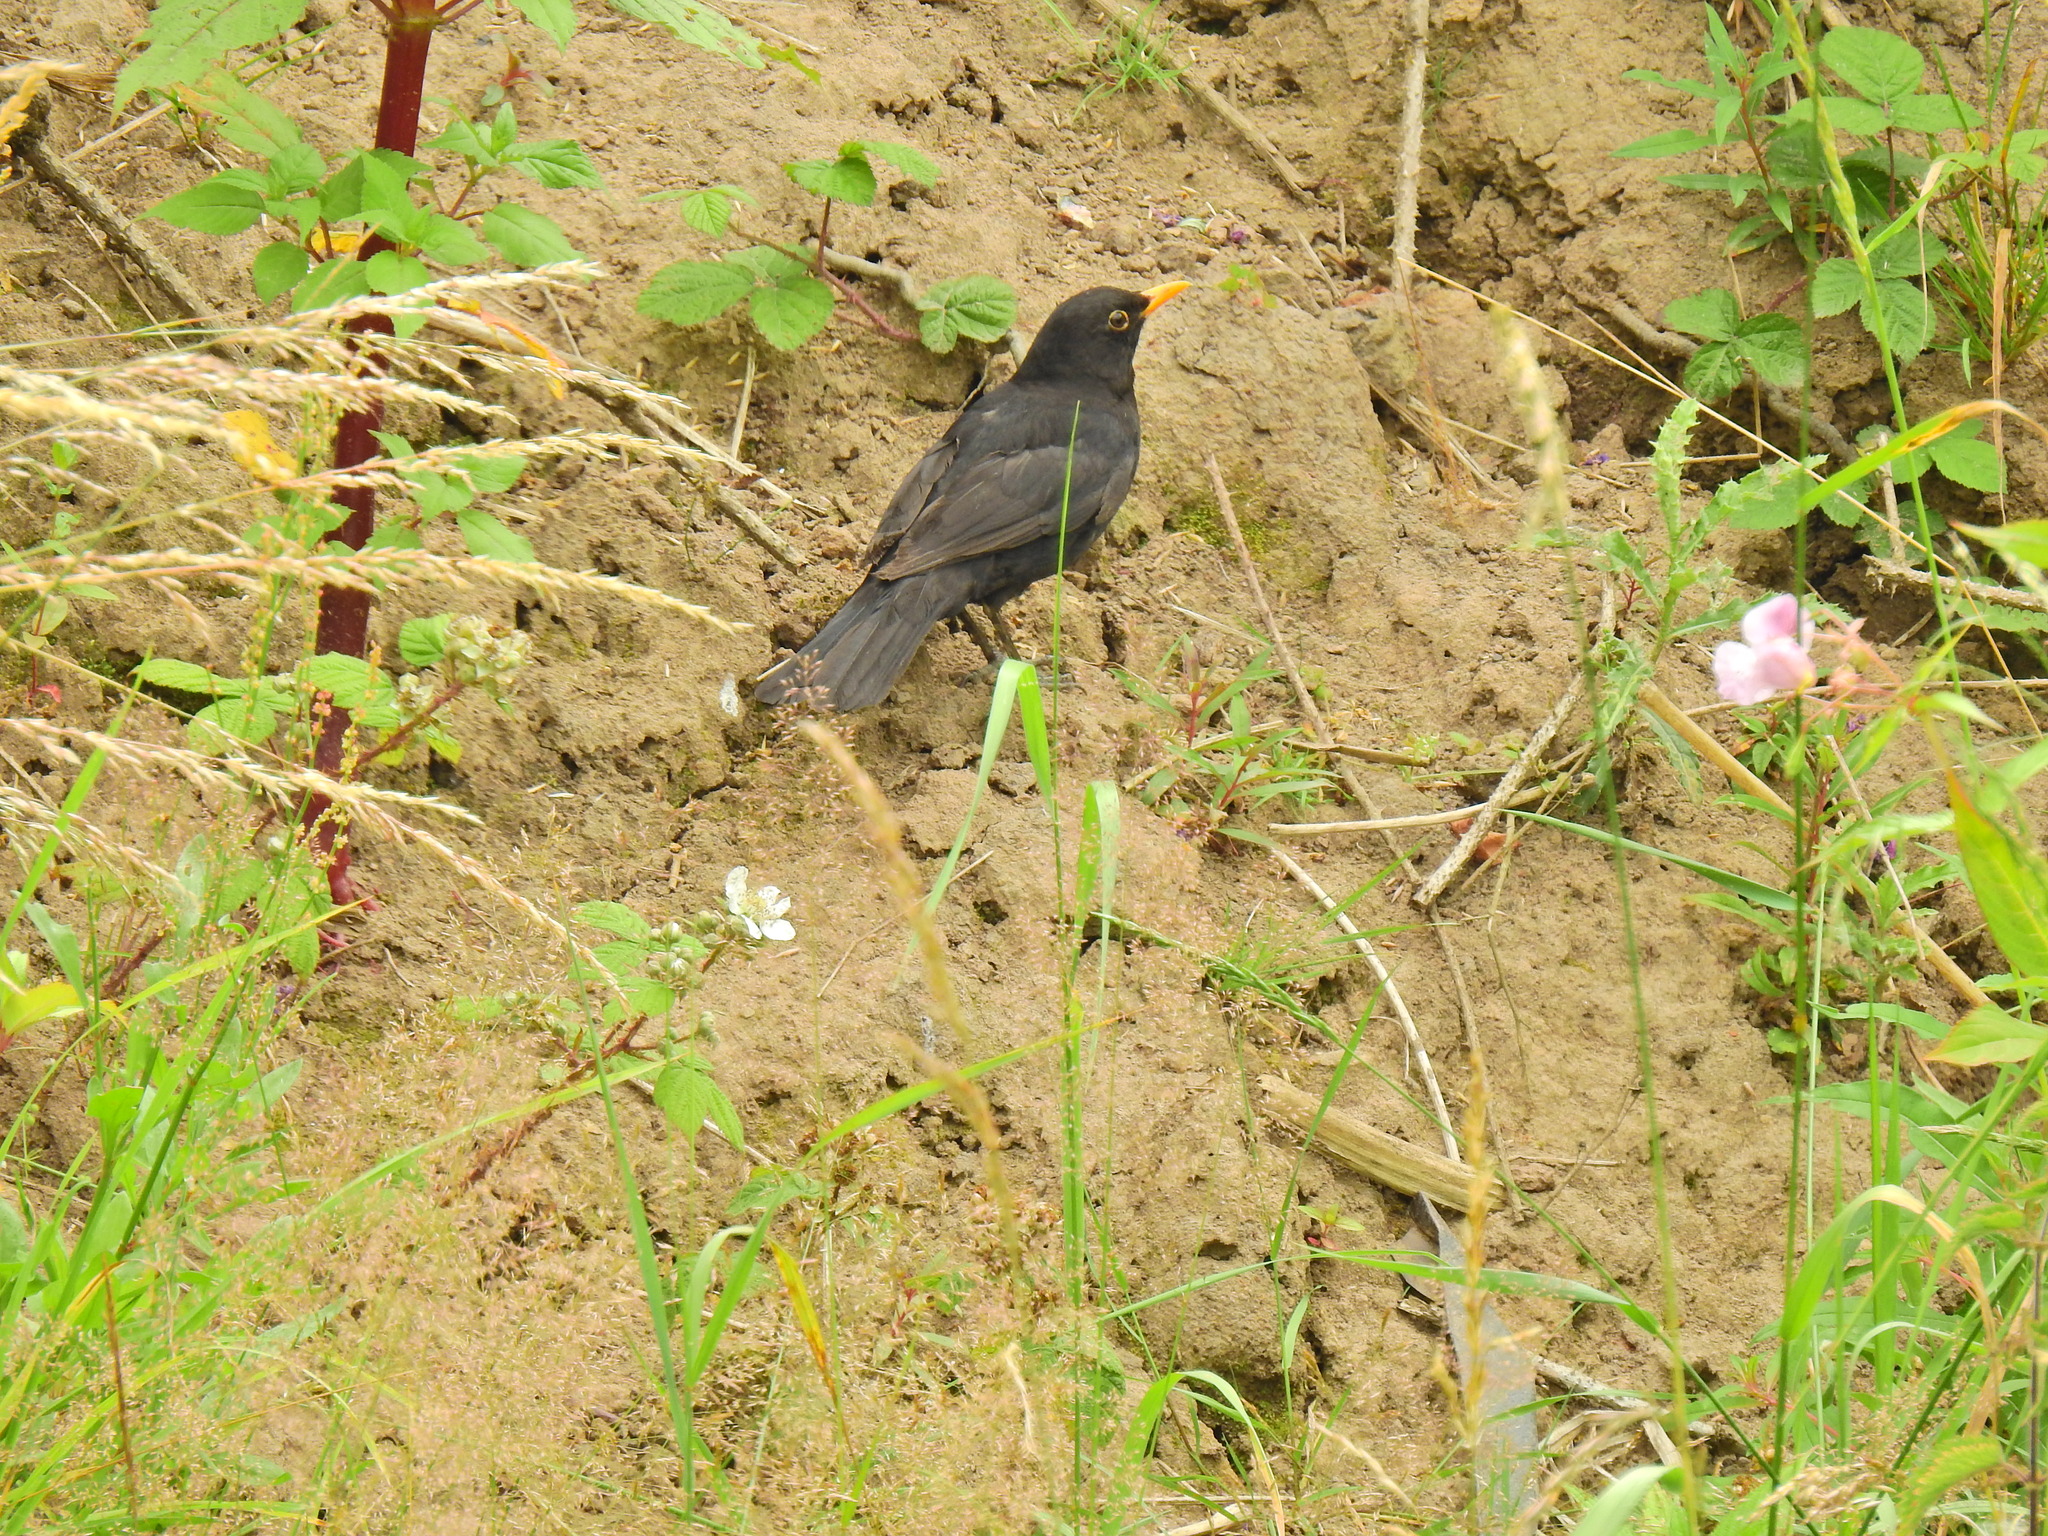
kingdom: Animalia
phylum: Chordata
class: Aves
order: Passeriformes
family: Turdidae
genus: Turdus
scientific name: Turdus merula
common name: Common blackbird
